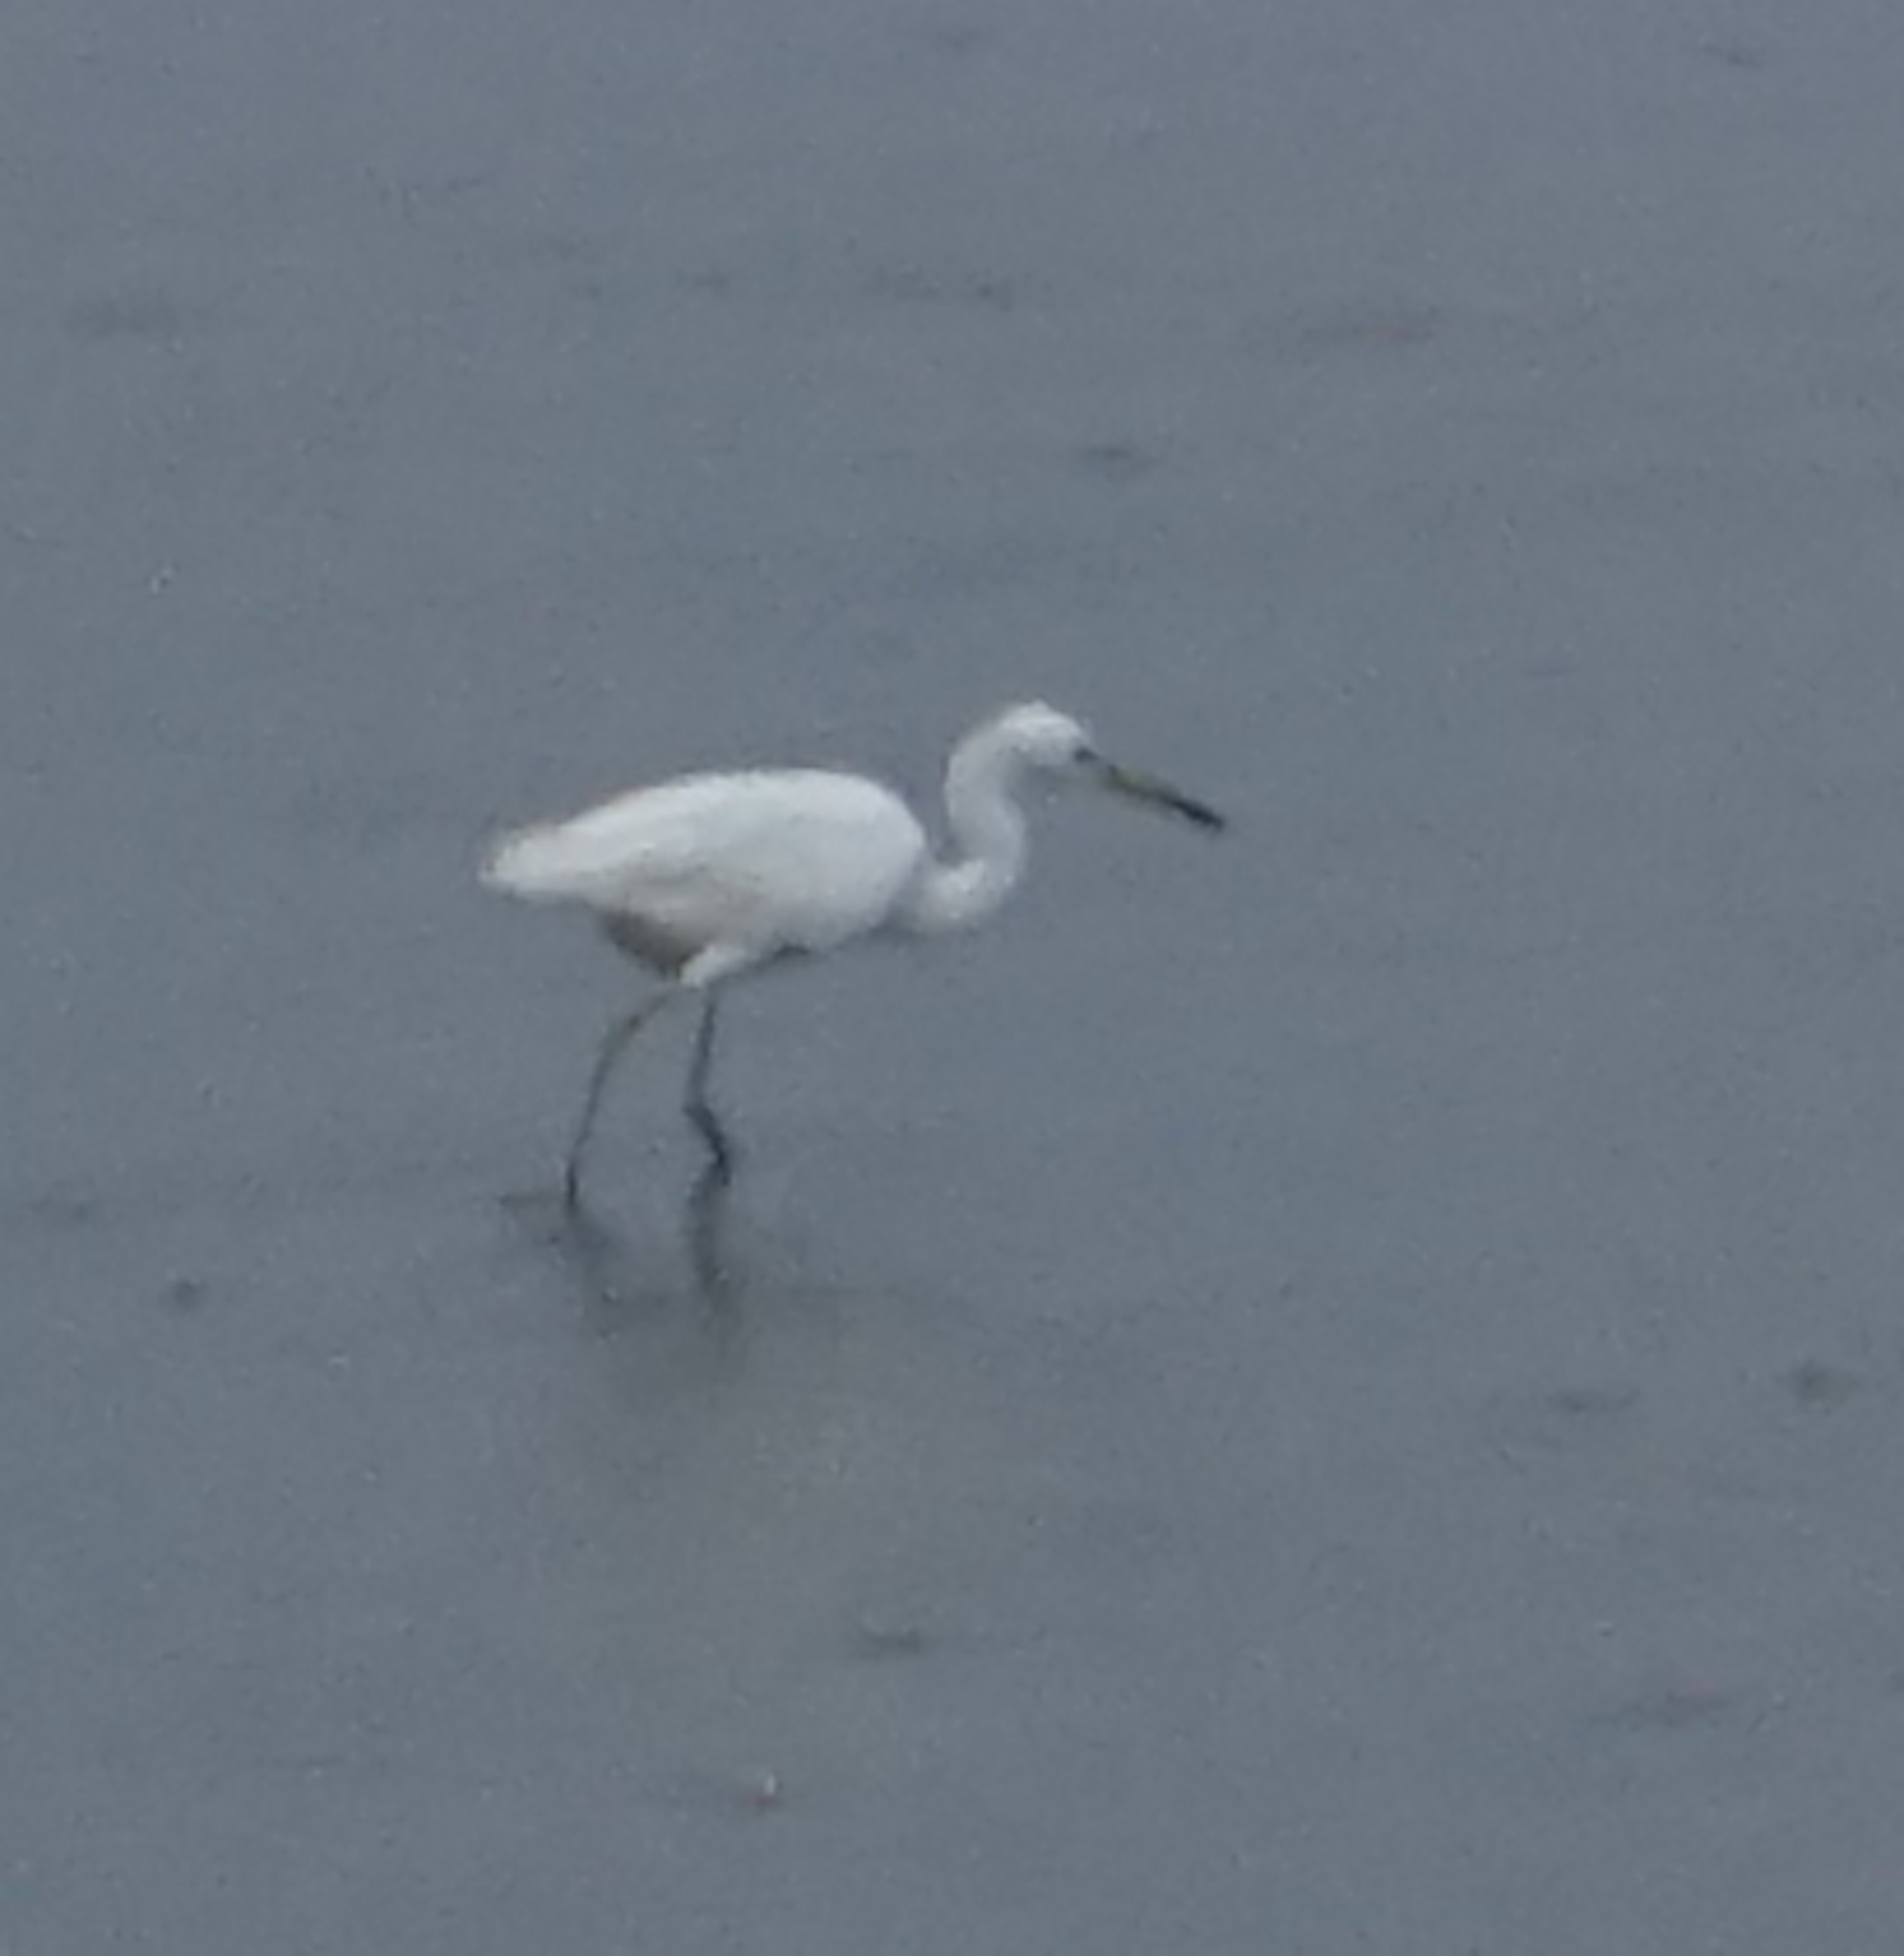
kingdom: Animalia
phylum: Chordata
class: Aves
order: Pelecaniformes
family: Ardeidae
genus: Egretta
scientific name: Egretta garzetta
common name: Little egret
